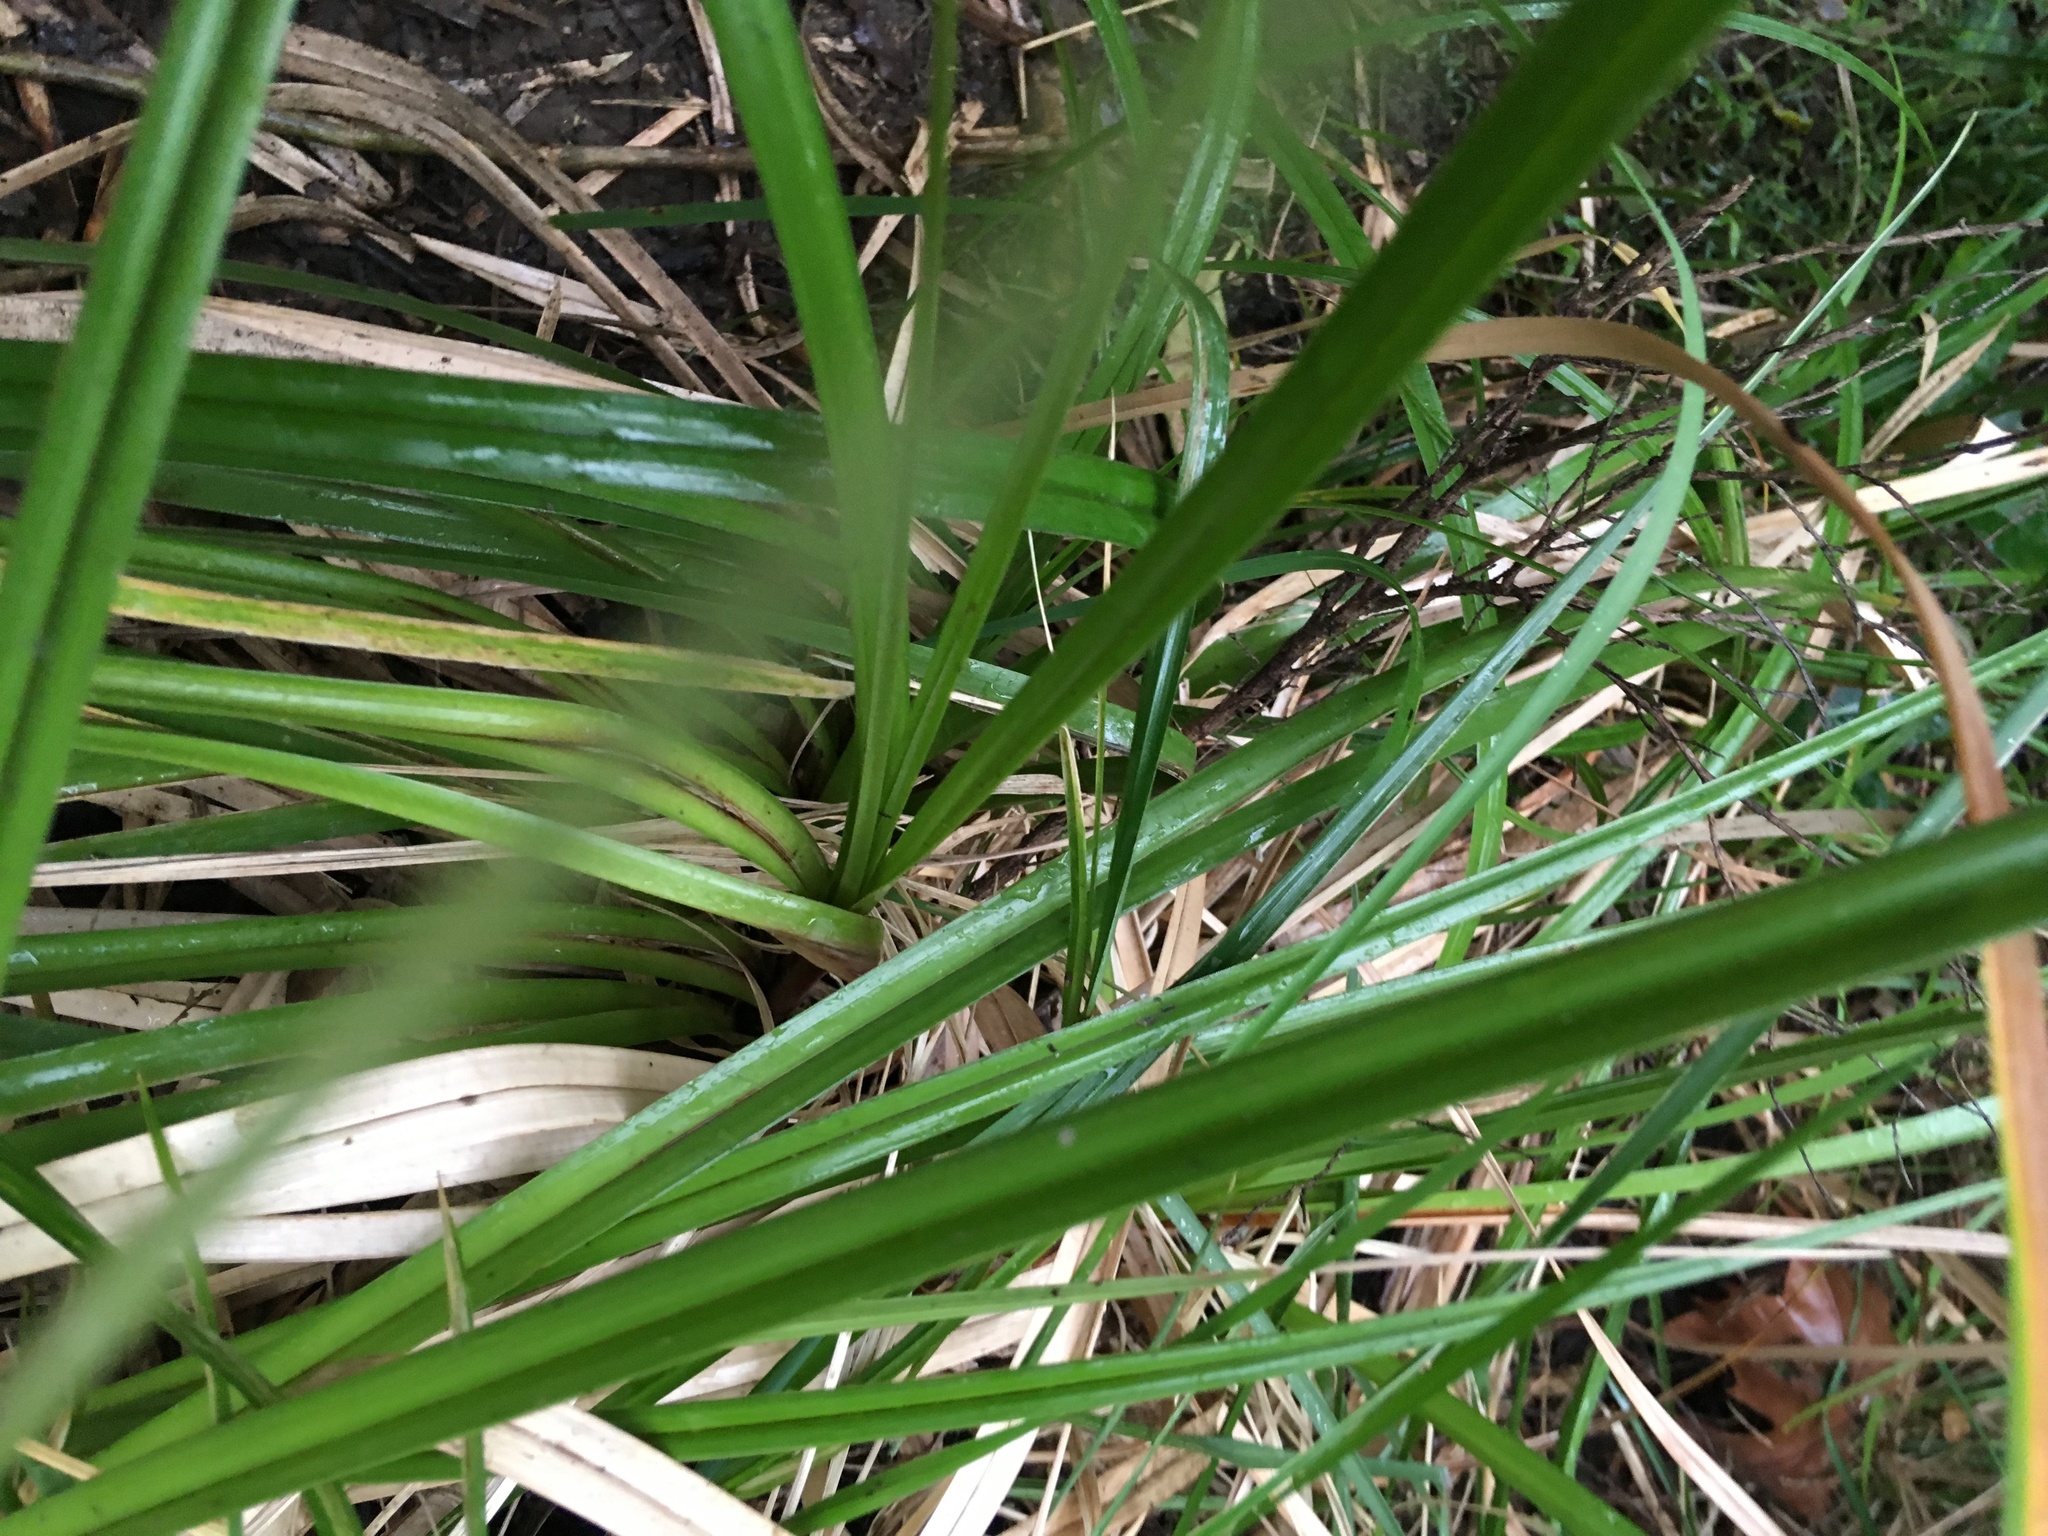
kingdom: Plantae
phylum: Tracheophyta
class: Liliopsida
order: Poales
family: Cyperaceae
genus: Cyperus
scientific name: Cyperus ustulatus
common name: Giant umbrella-sedge
